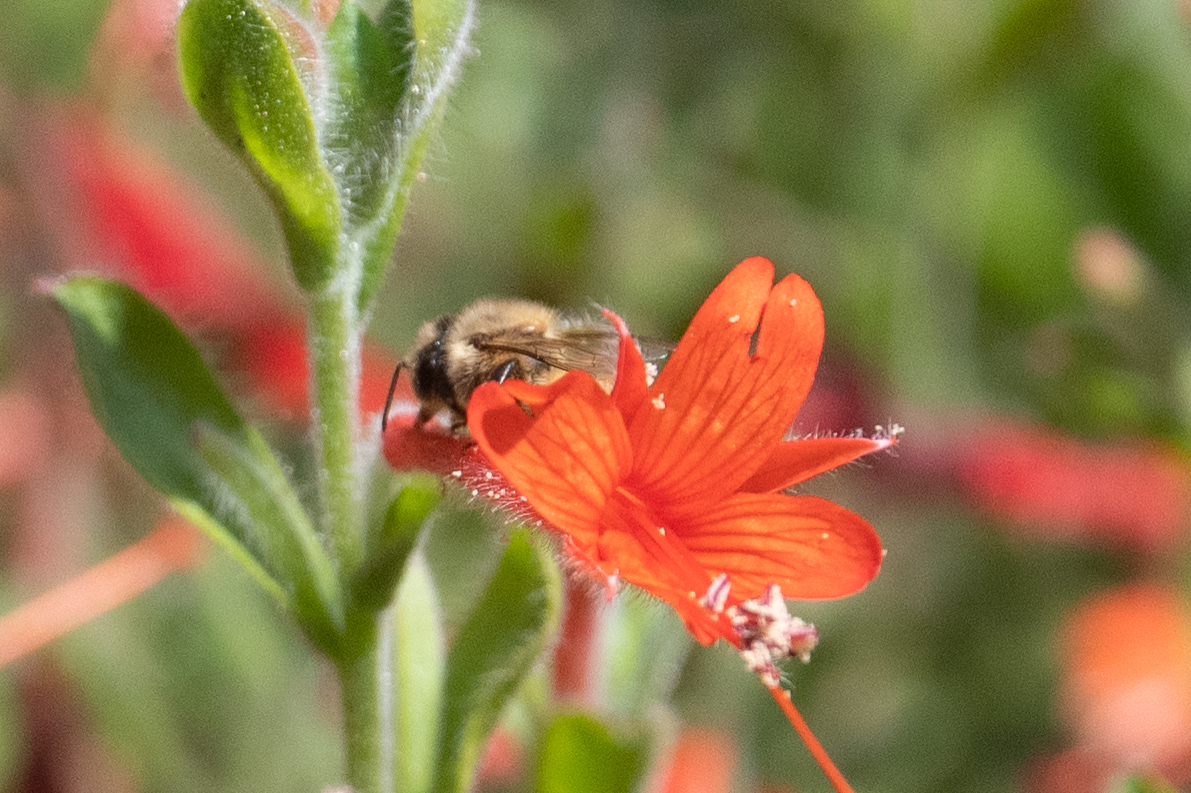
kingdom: Animalia
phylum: Arthropoda
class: Insecta
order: Hymenoptera
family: Apidae
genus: Apis
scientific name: Apis mellifera
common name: Honey bee
